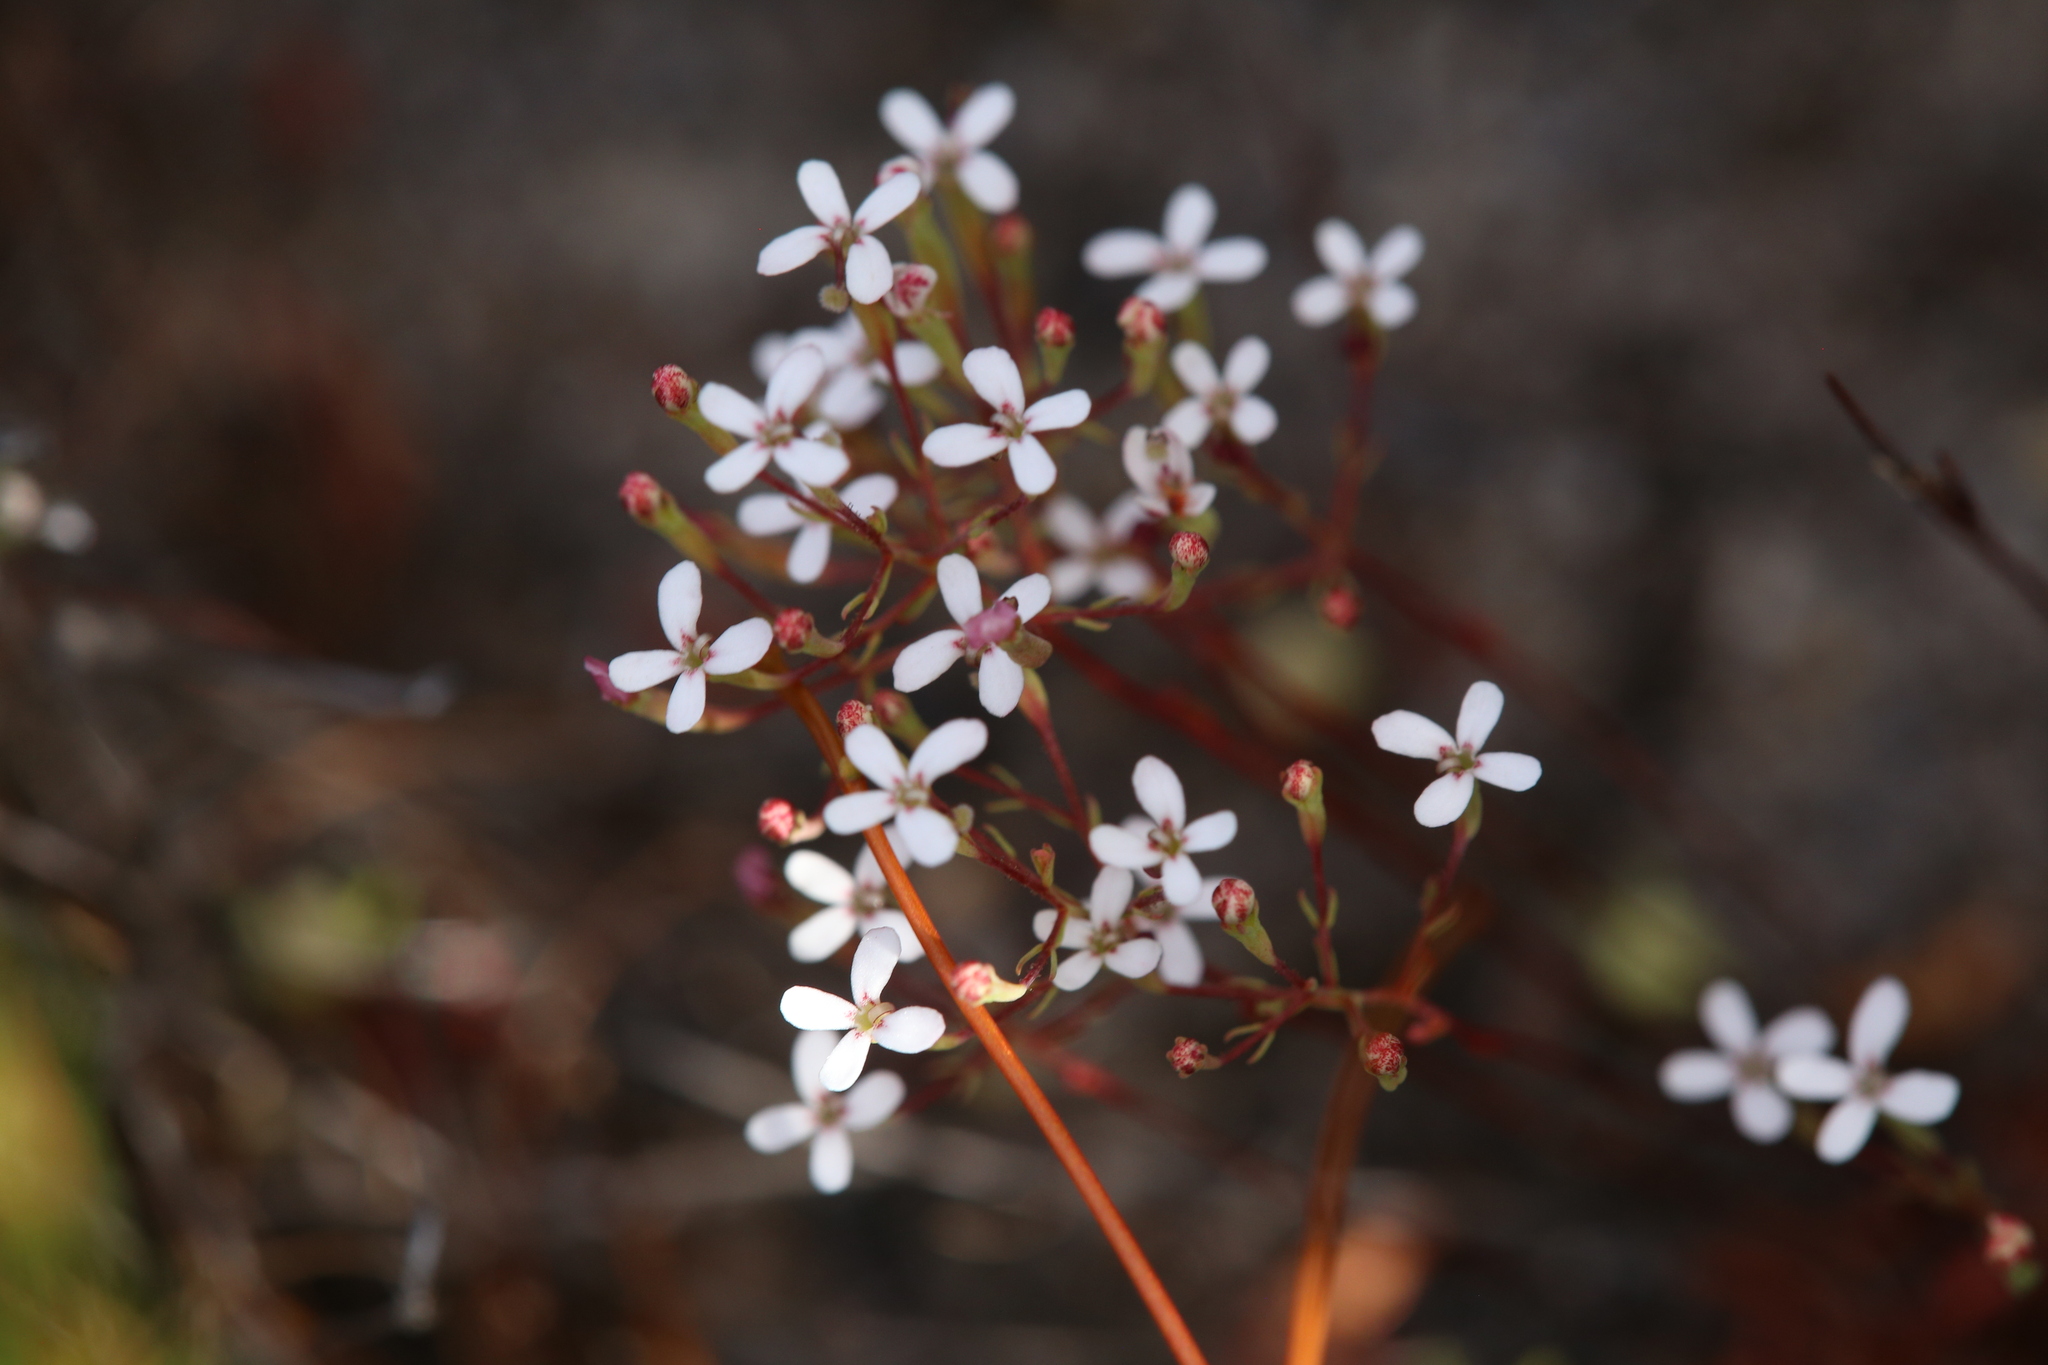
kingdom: Plantae
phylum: Tracheophyta
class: Magnoliopsida
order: Asterales
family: Stylidiaceae
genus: Stylidium
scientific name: Stylidium pulchellum
